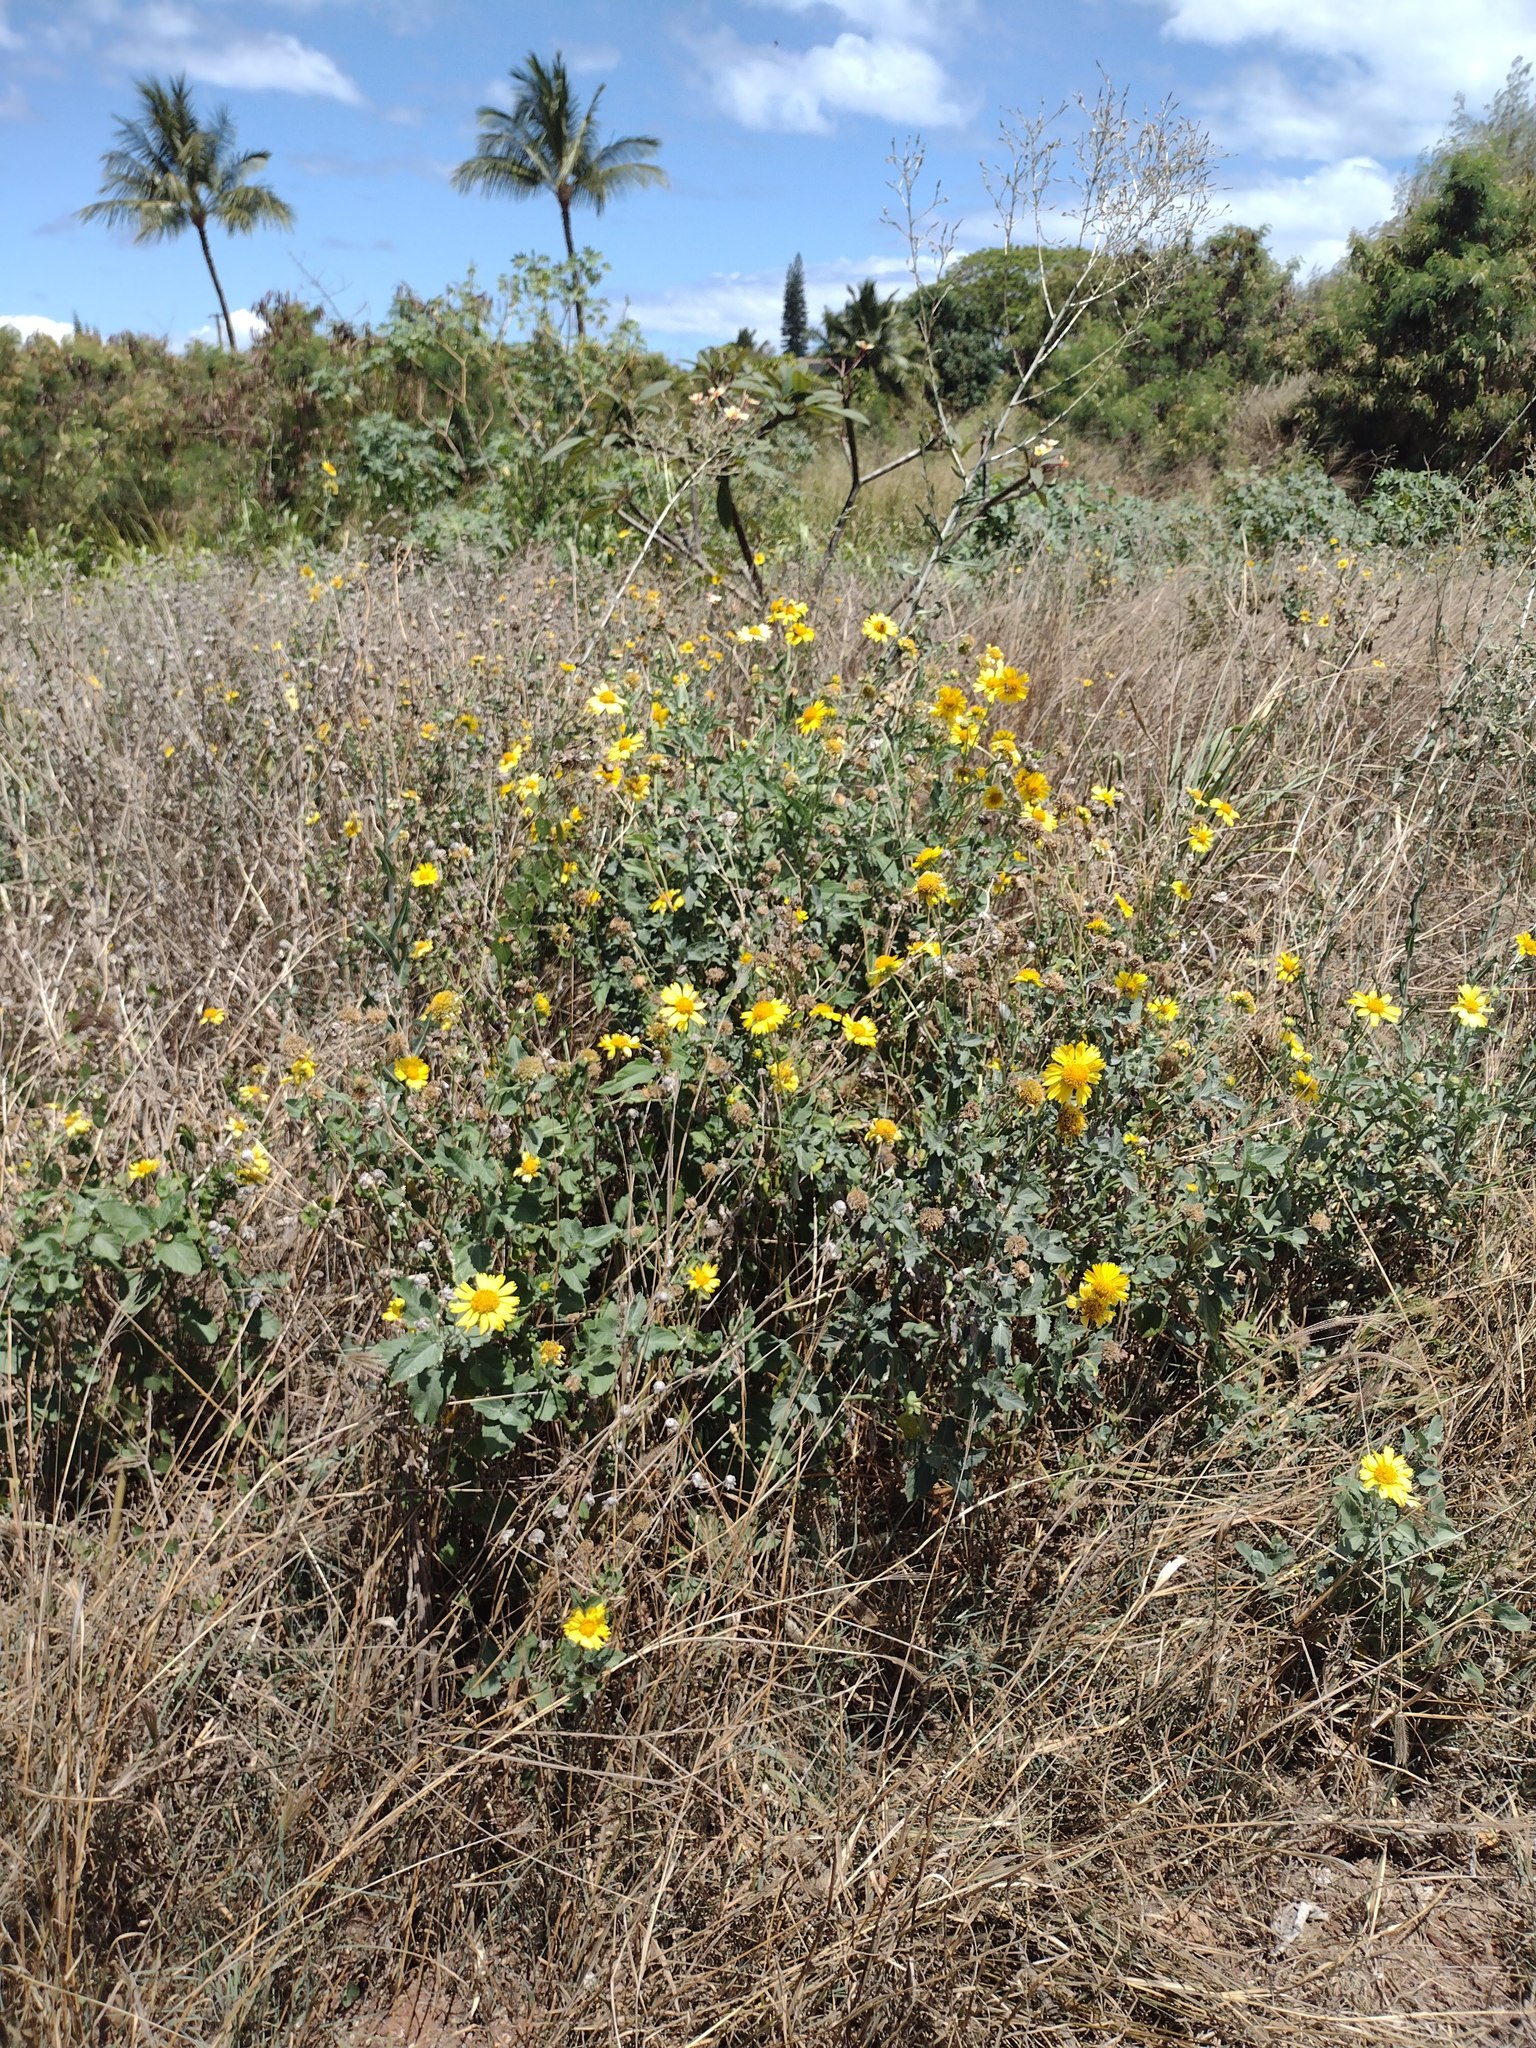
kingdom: Plantae
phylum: Tracheophyta
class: Magnoliopsida
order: Asterales
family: Asteraceae
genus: Verbesina
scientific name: Verbesina encelioides
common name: Golden crownbeard
